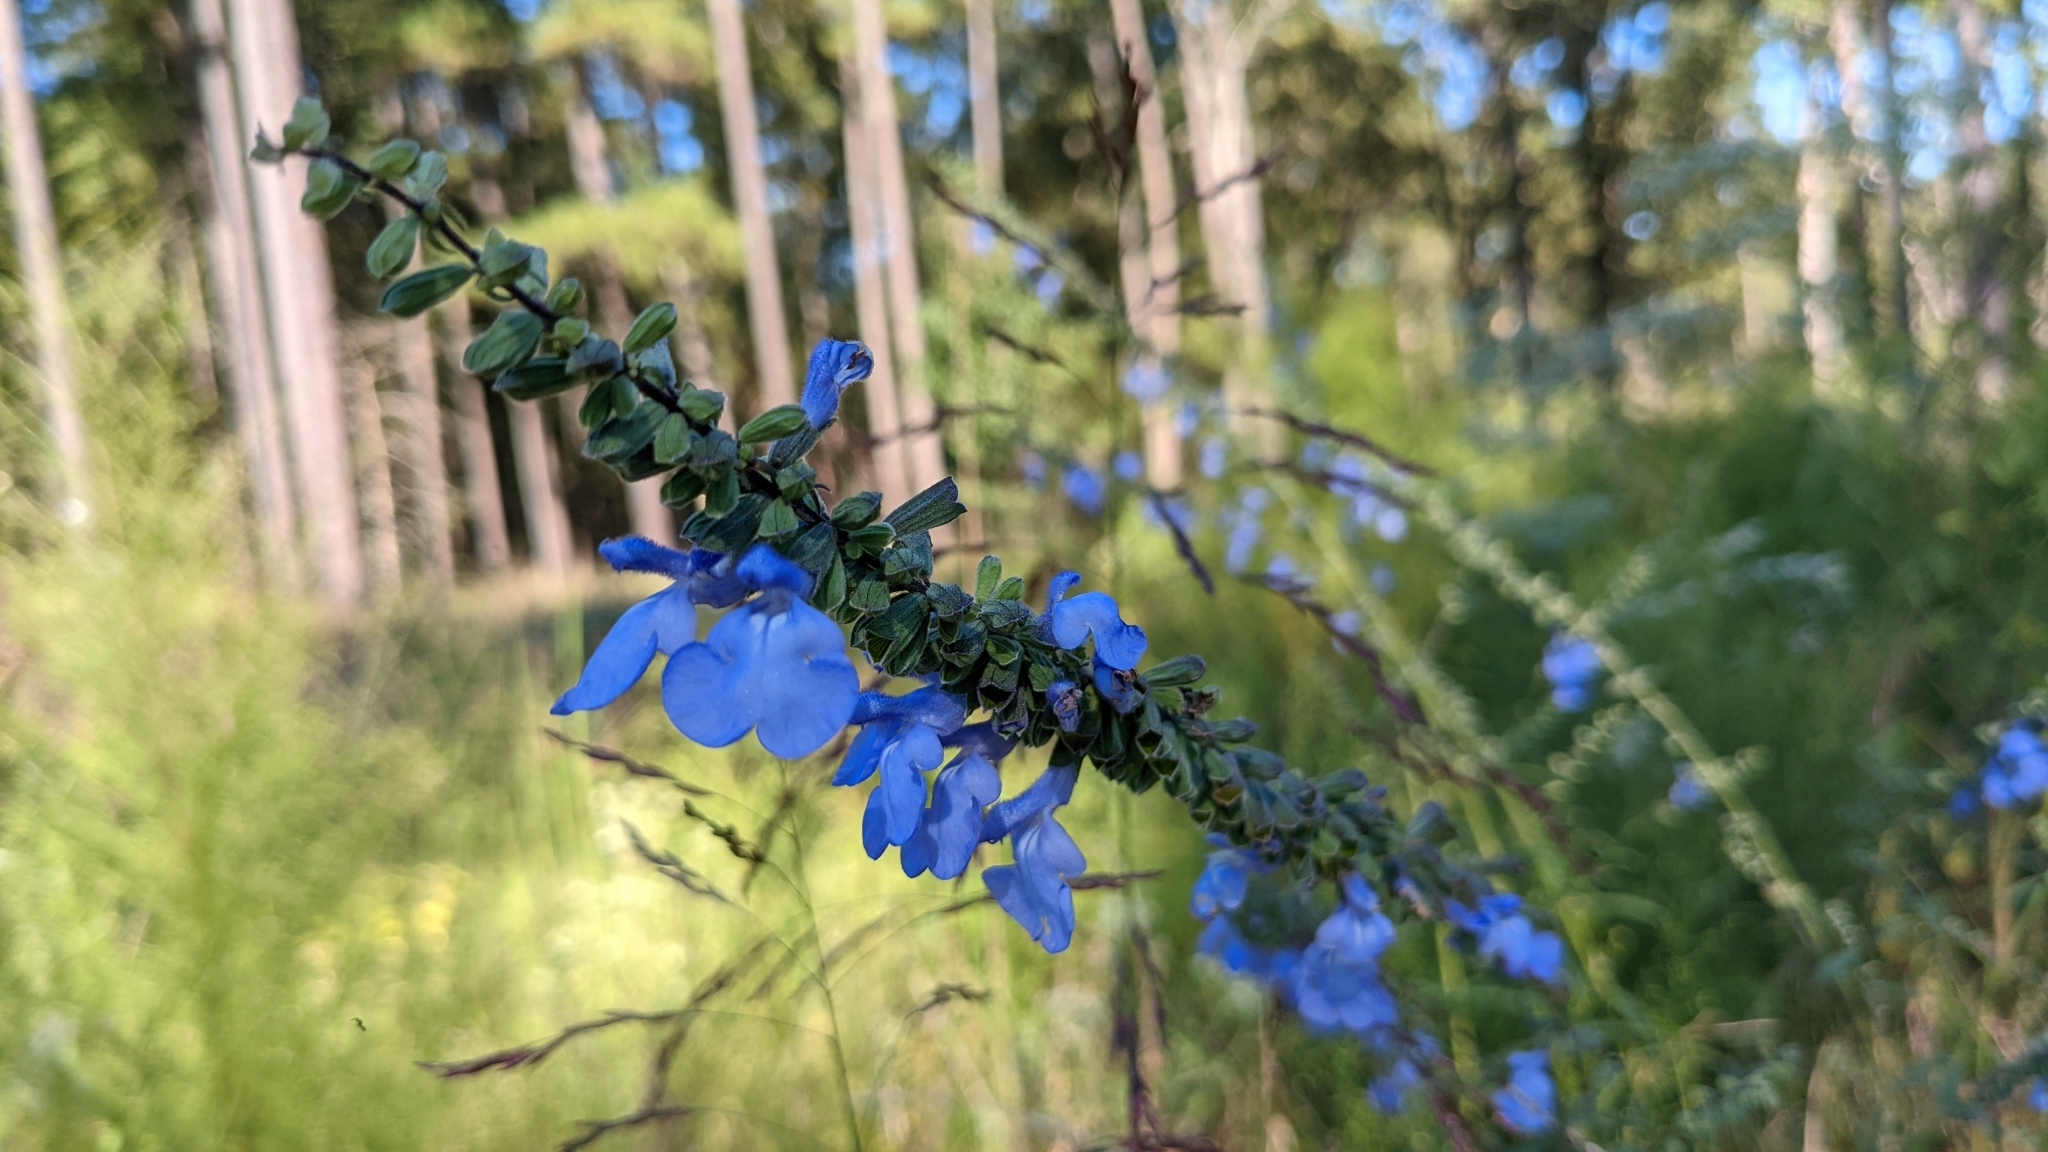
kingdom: Plantae
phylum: Tracheophyta
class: Magnoliopsida
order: Lamiales
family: Lamiaceae
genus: Salvia
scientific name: Salvia azurea
